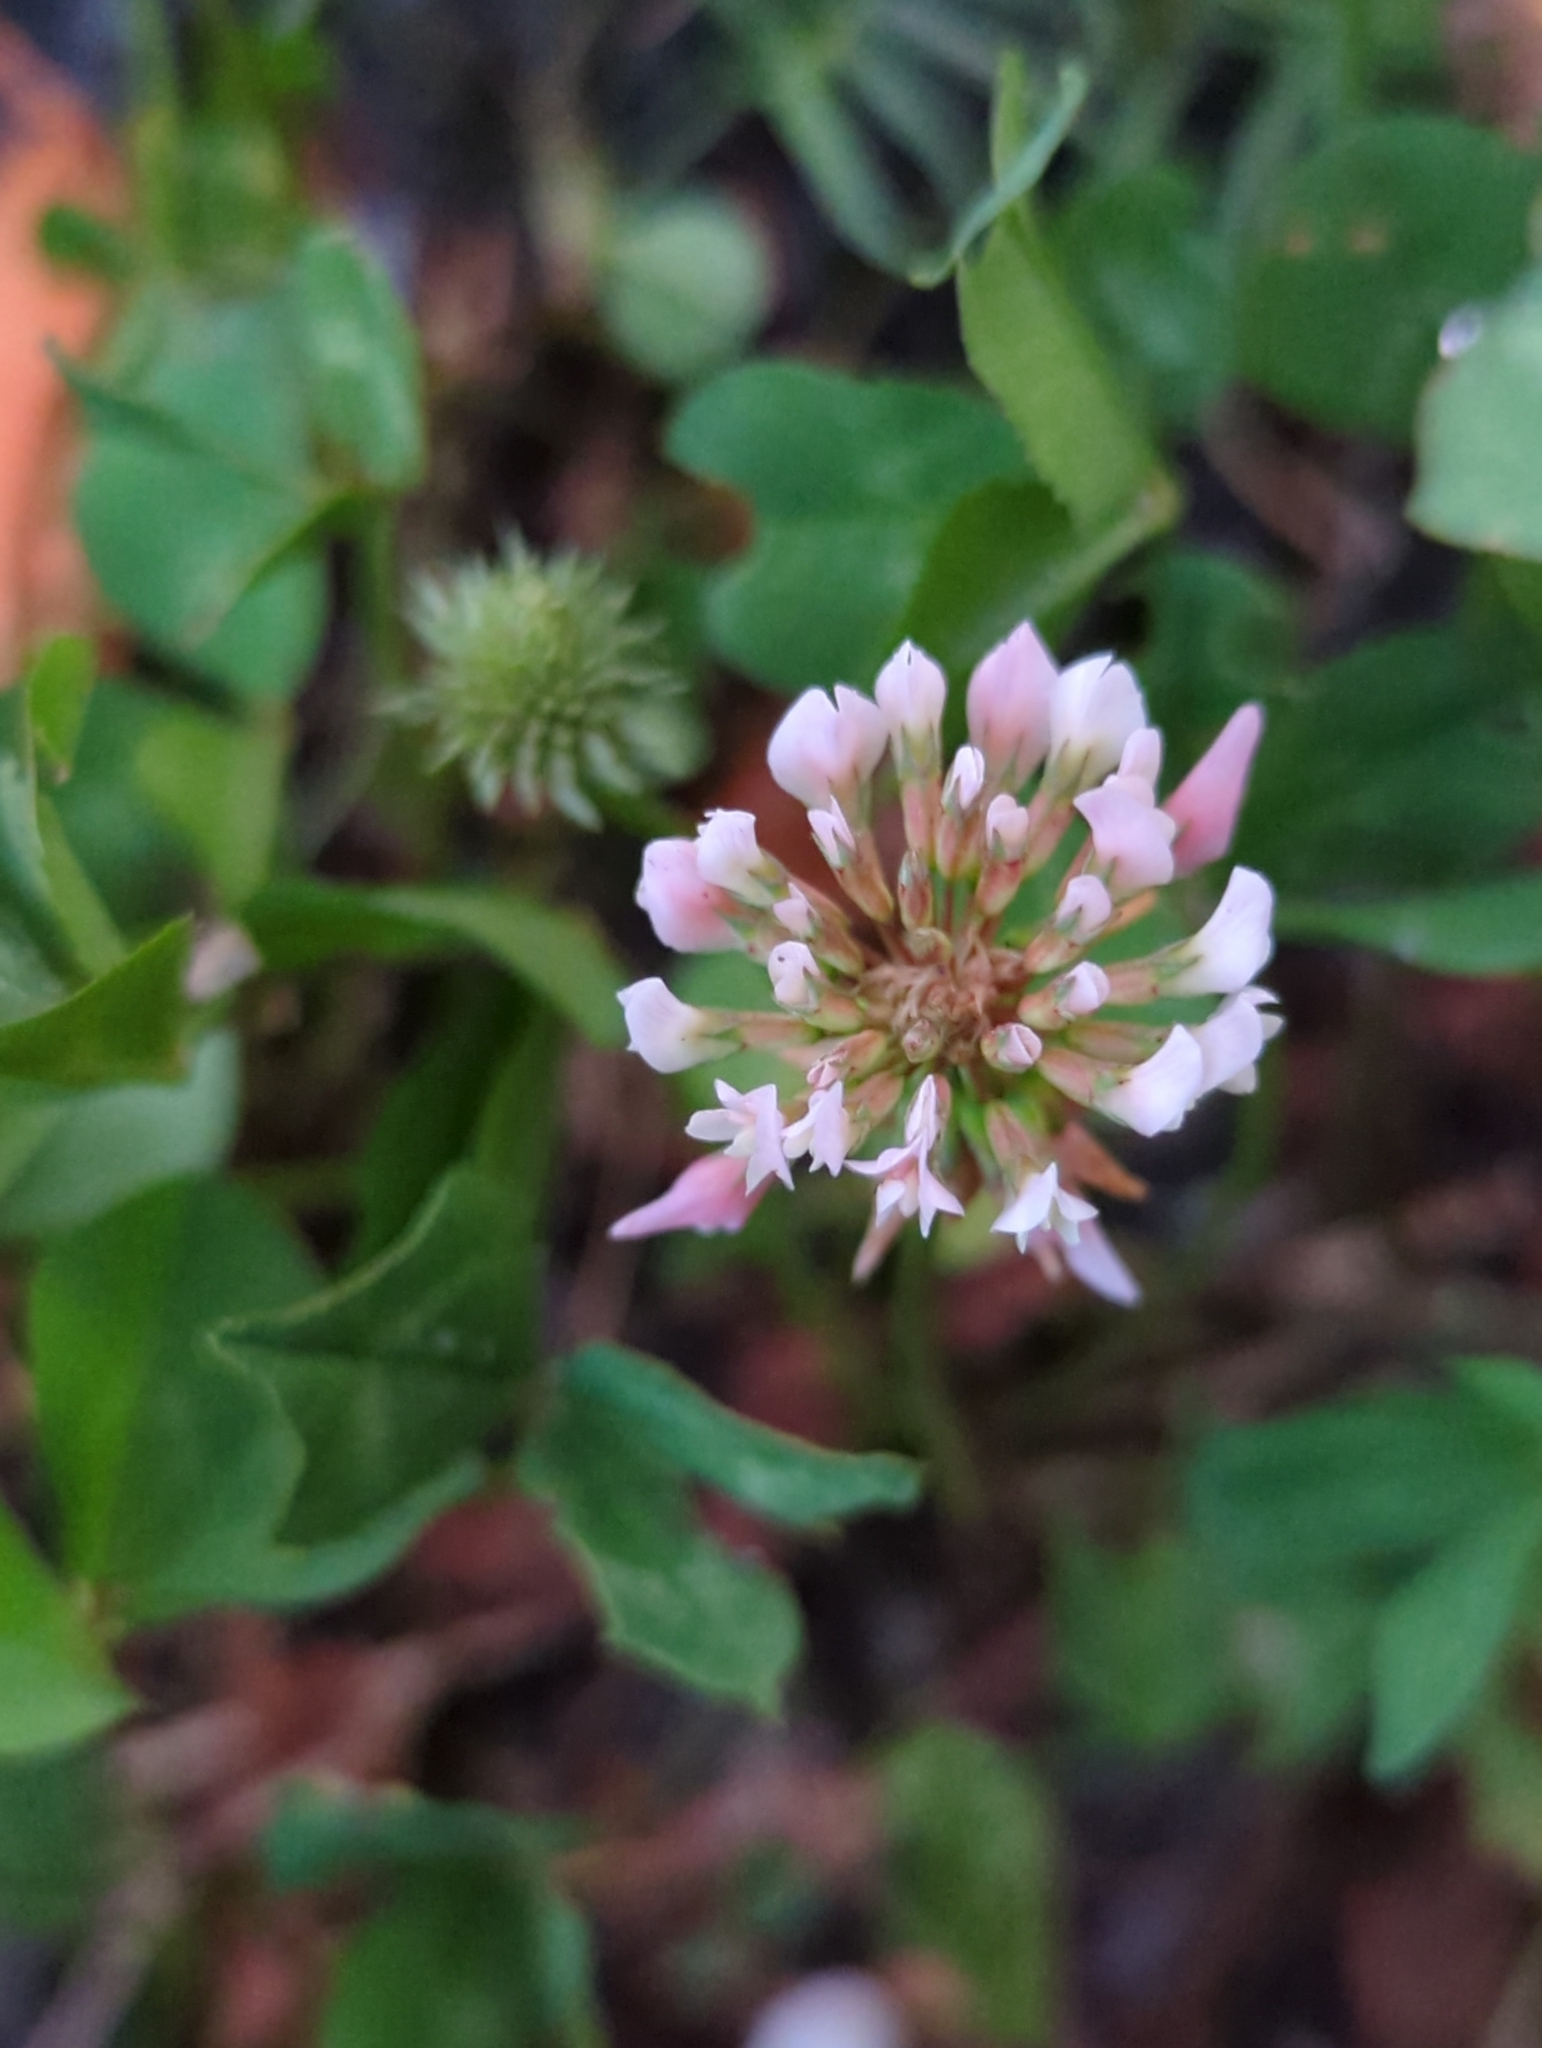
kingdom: Plantae
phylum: Tracheophyta
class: Magnoliopsida
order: Fabales
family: Fabaceae
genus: Trifolium
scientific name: Trifolium repens
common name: White clover
